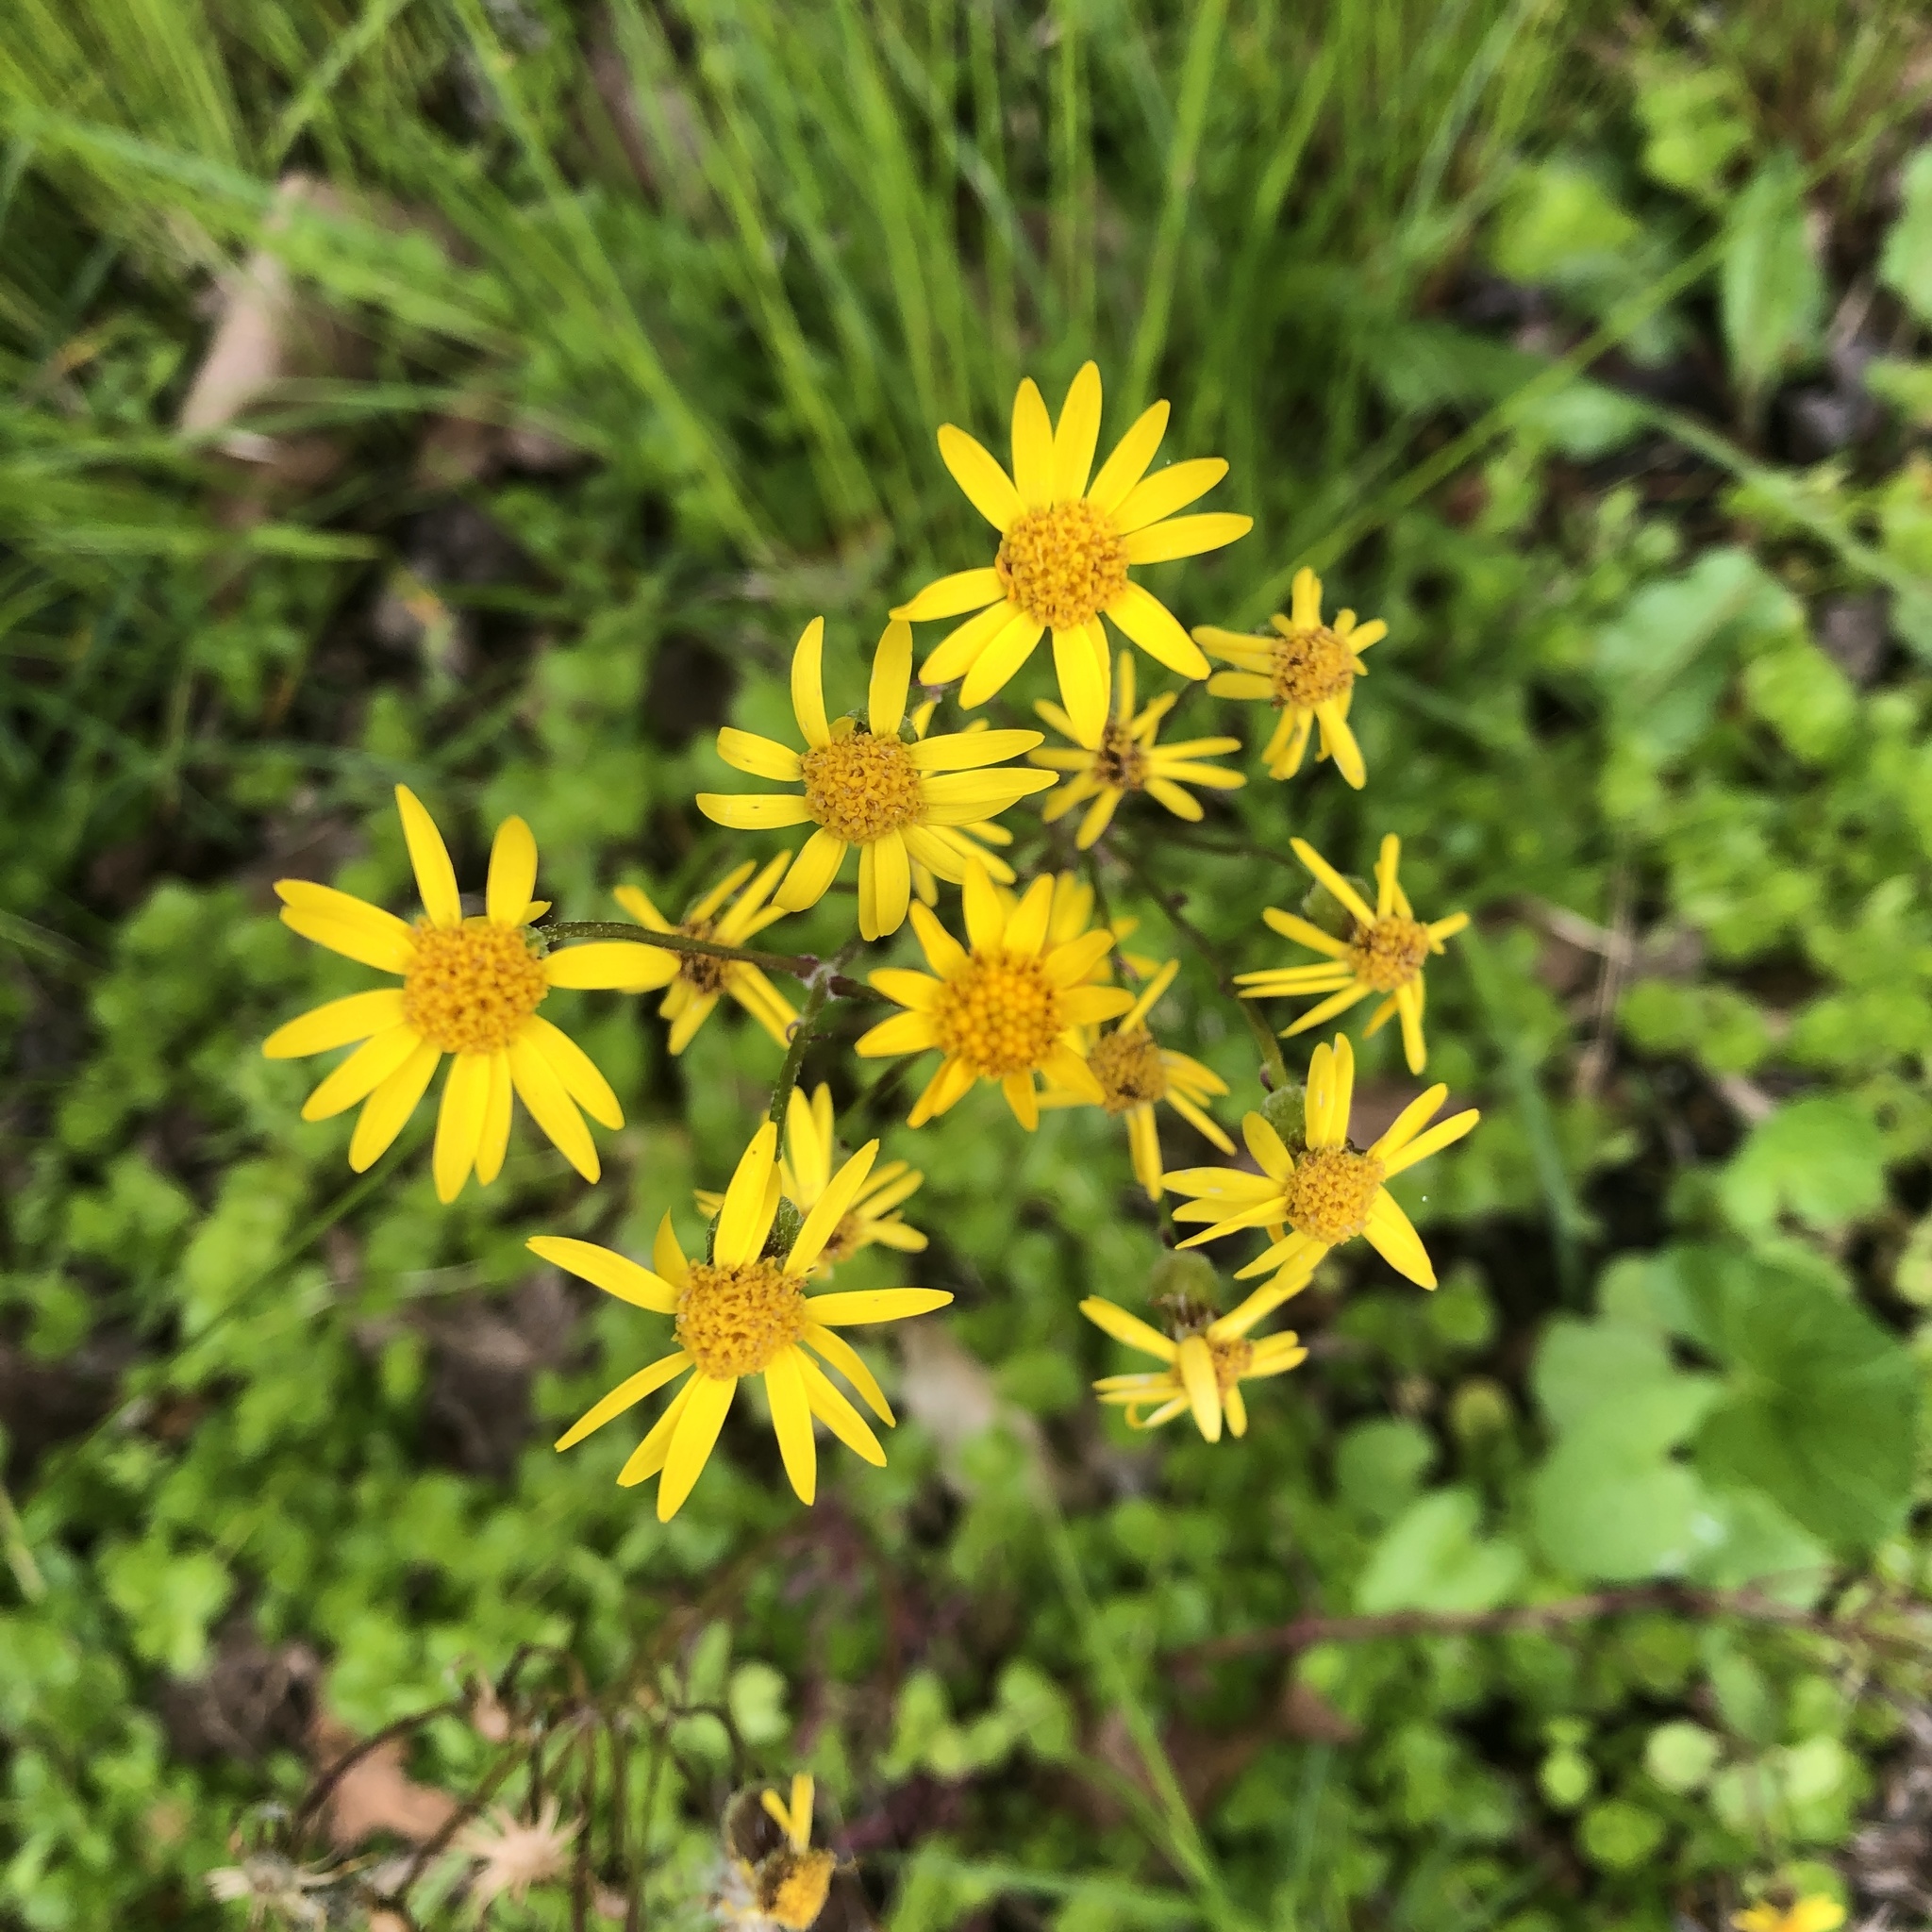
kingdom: Plantae
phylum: Tracheophyta
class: Magnoliopsida
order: Asterales
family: Asteraceae
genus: Packera
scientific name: Packera aurea
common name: Golden groundsel
